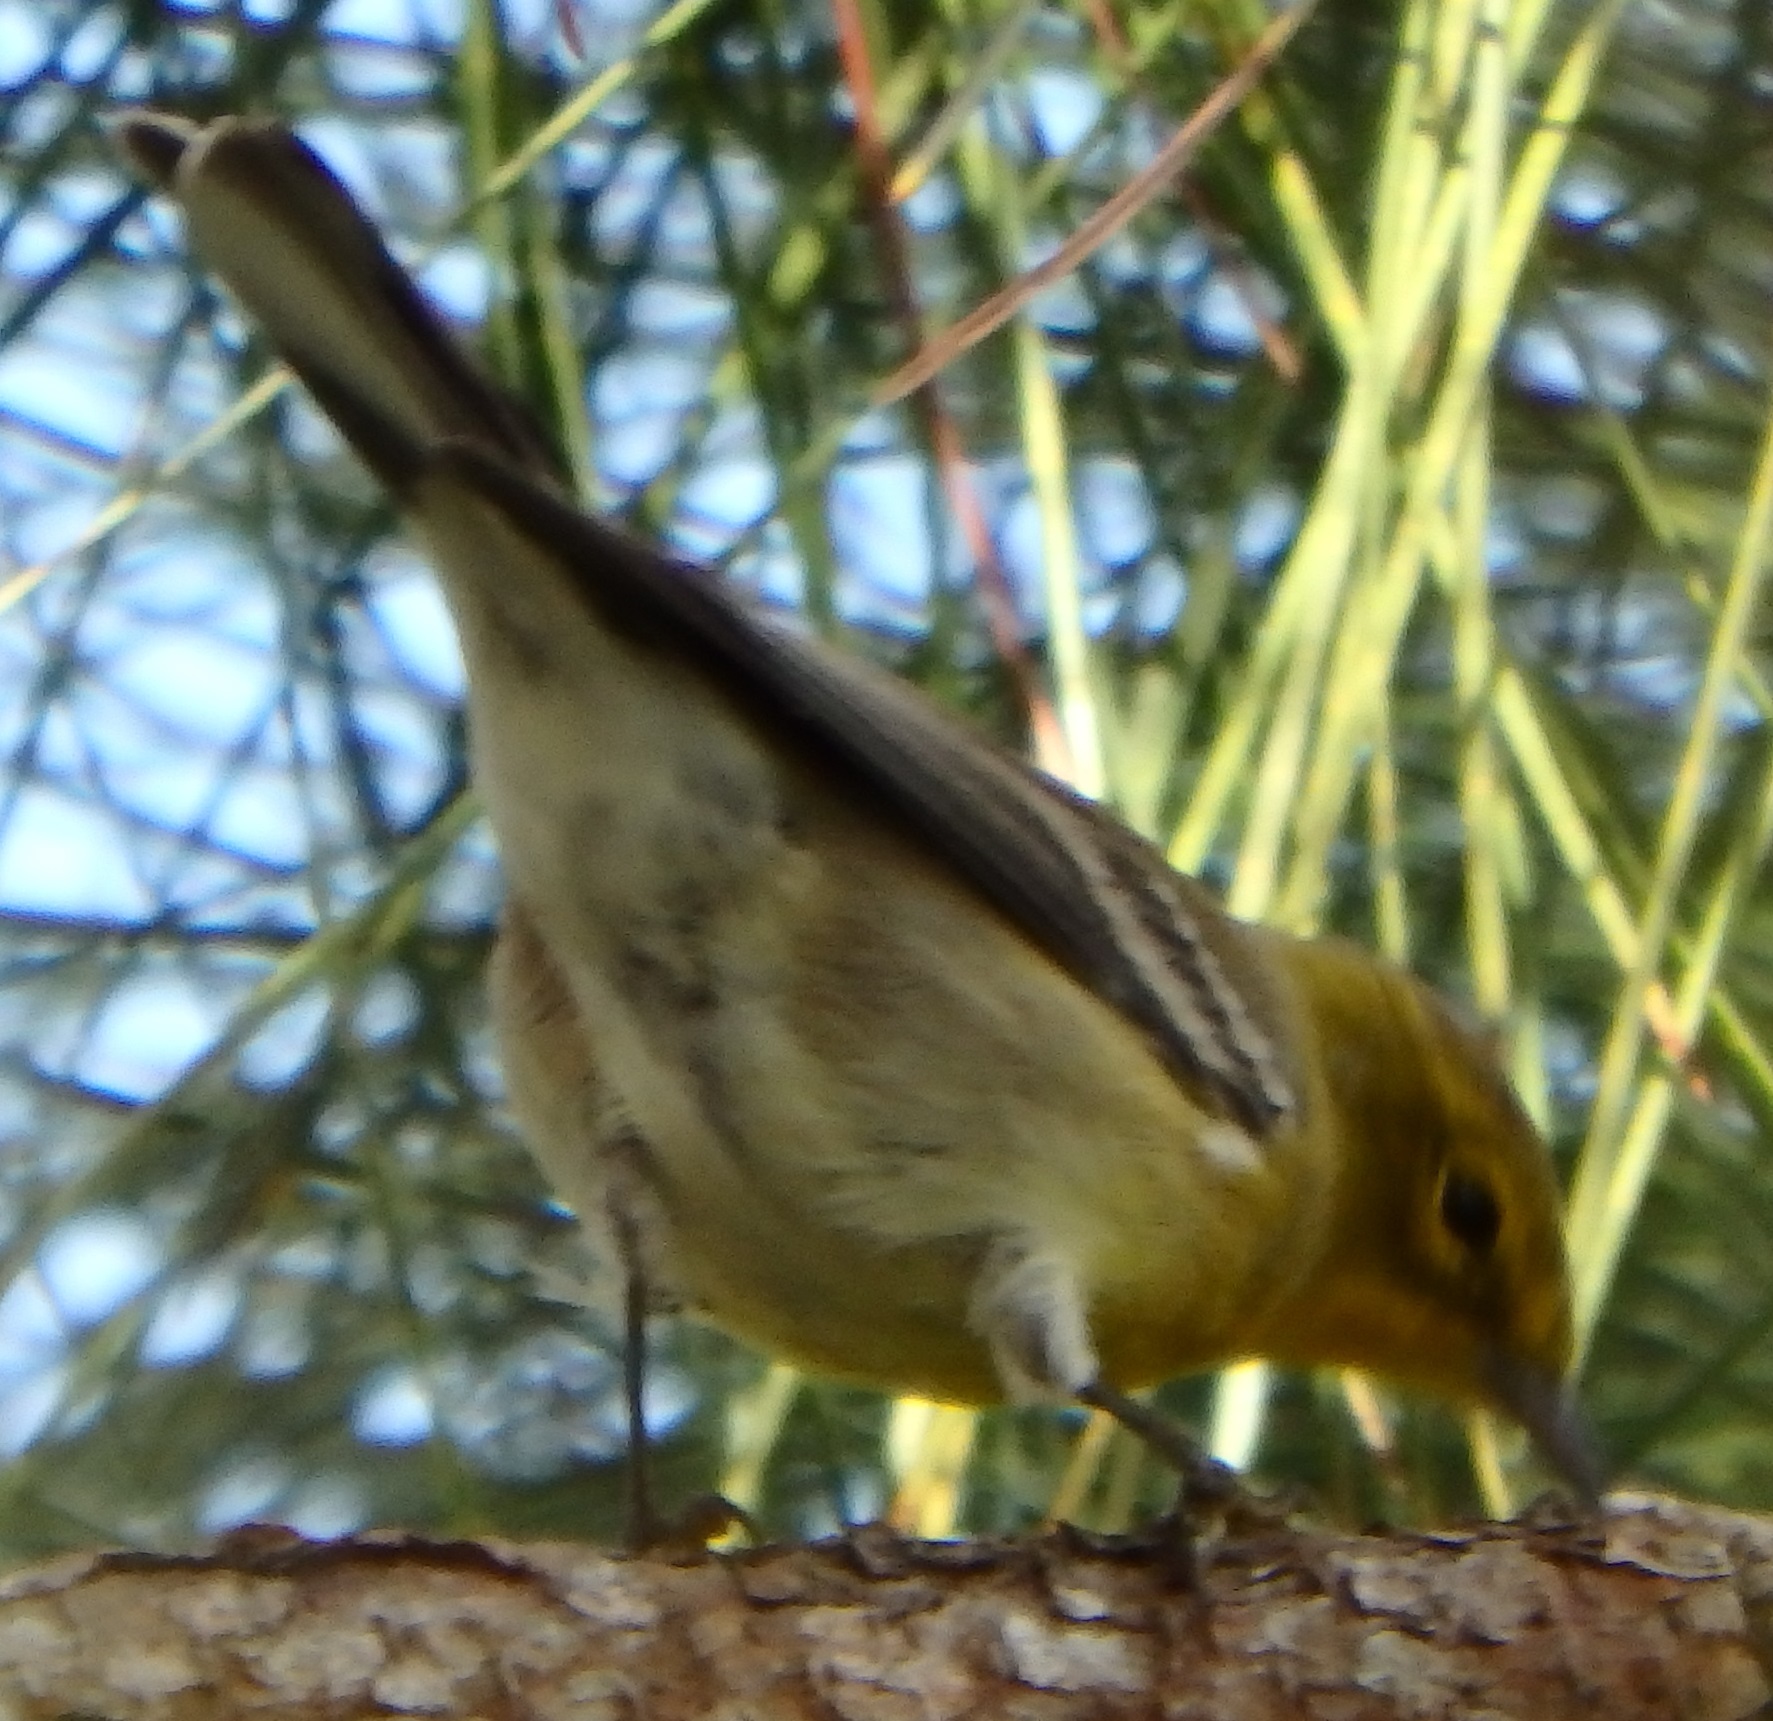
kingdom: Animalia
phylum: Chordata
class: Aves
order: Passeriformes
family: Parulidae
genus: Setophaga
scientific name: Setophaga pinus
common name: Pine warbler
